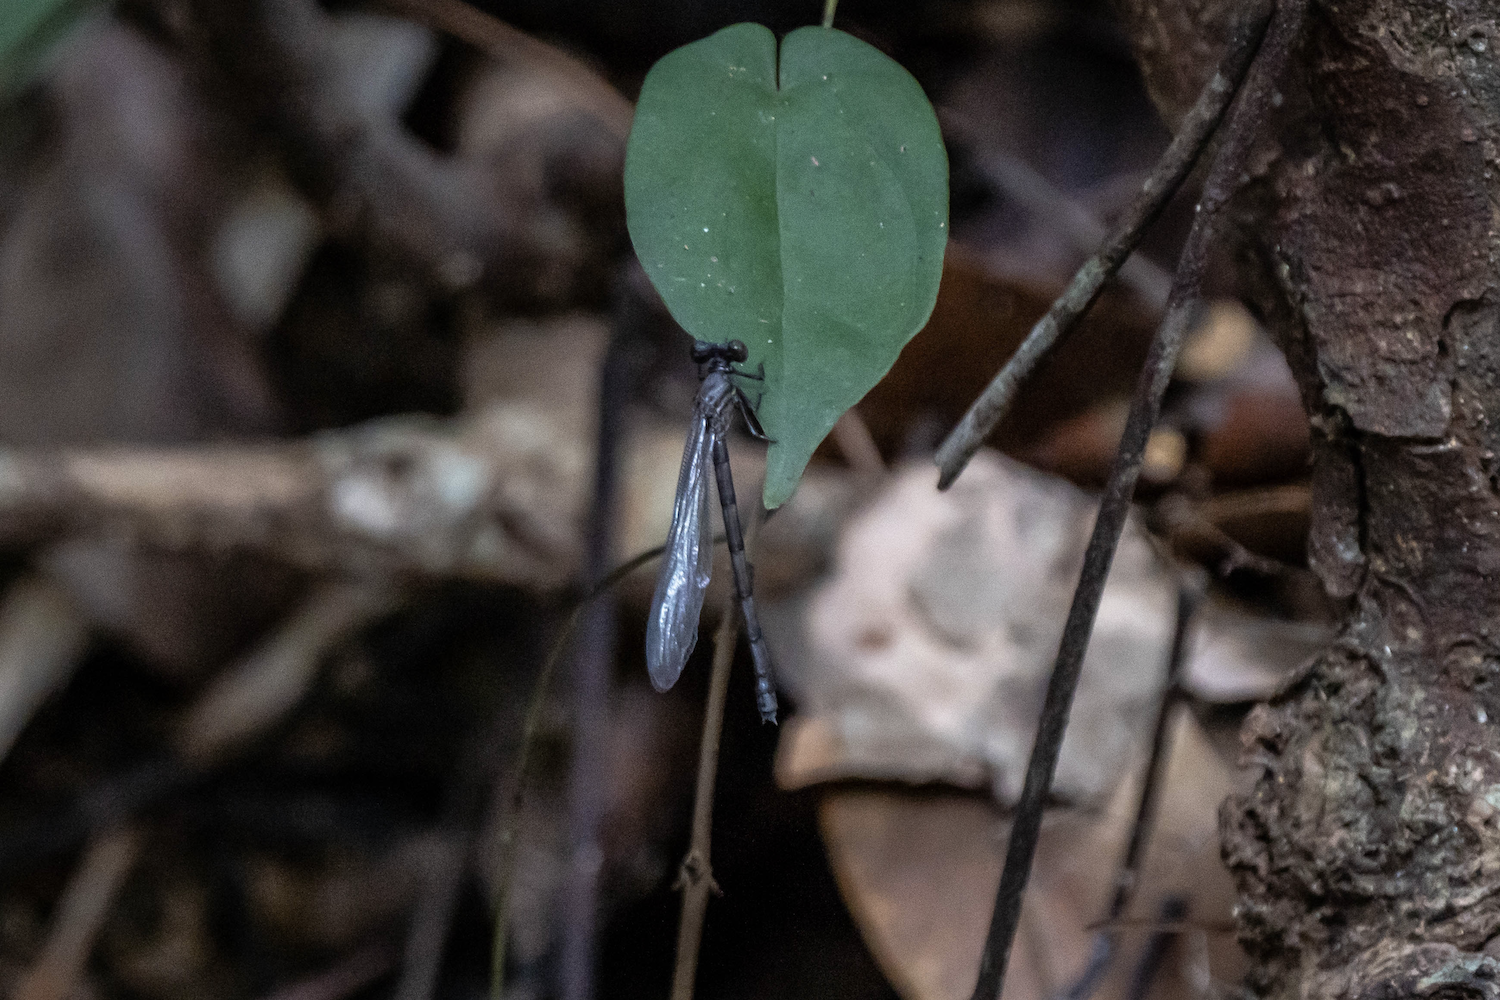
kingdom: Animalia
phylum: Arthropoda
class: Insecta
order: Odonata
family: Euphaeidae
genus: Euphaea
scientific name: Euphaea decorata
